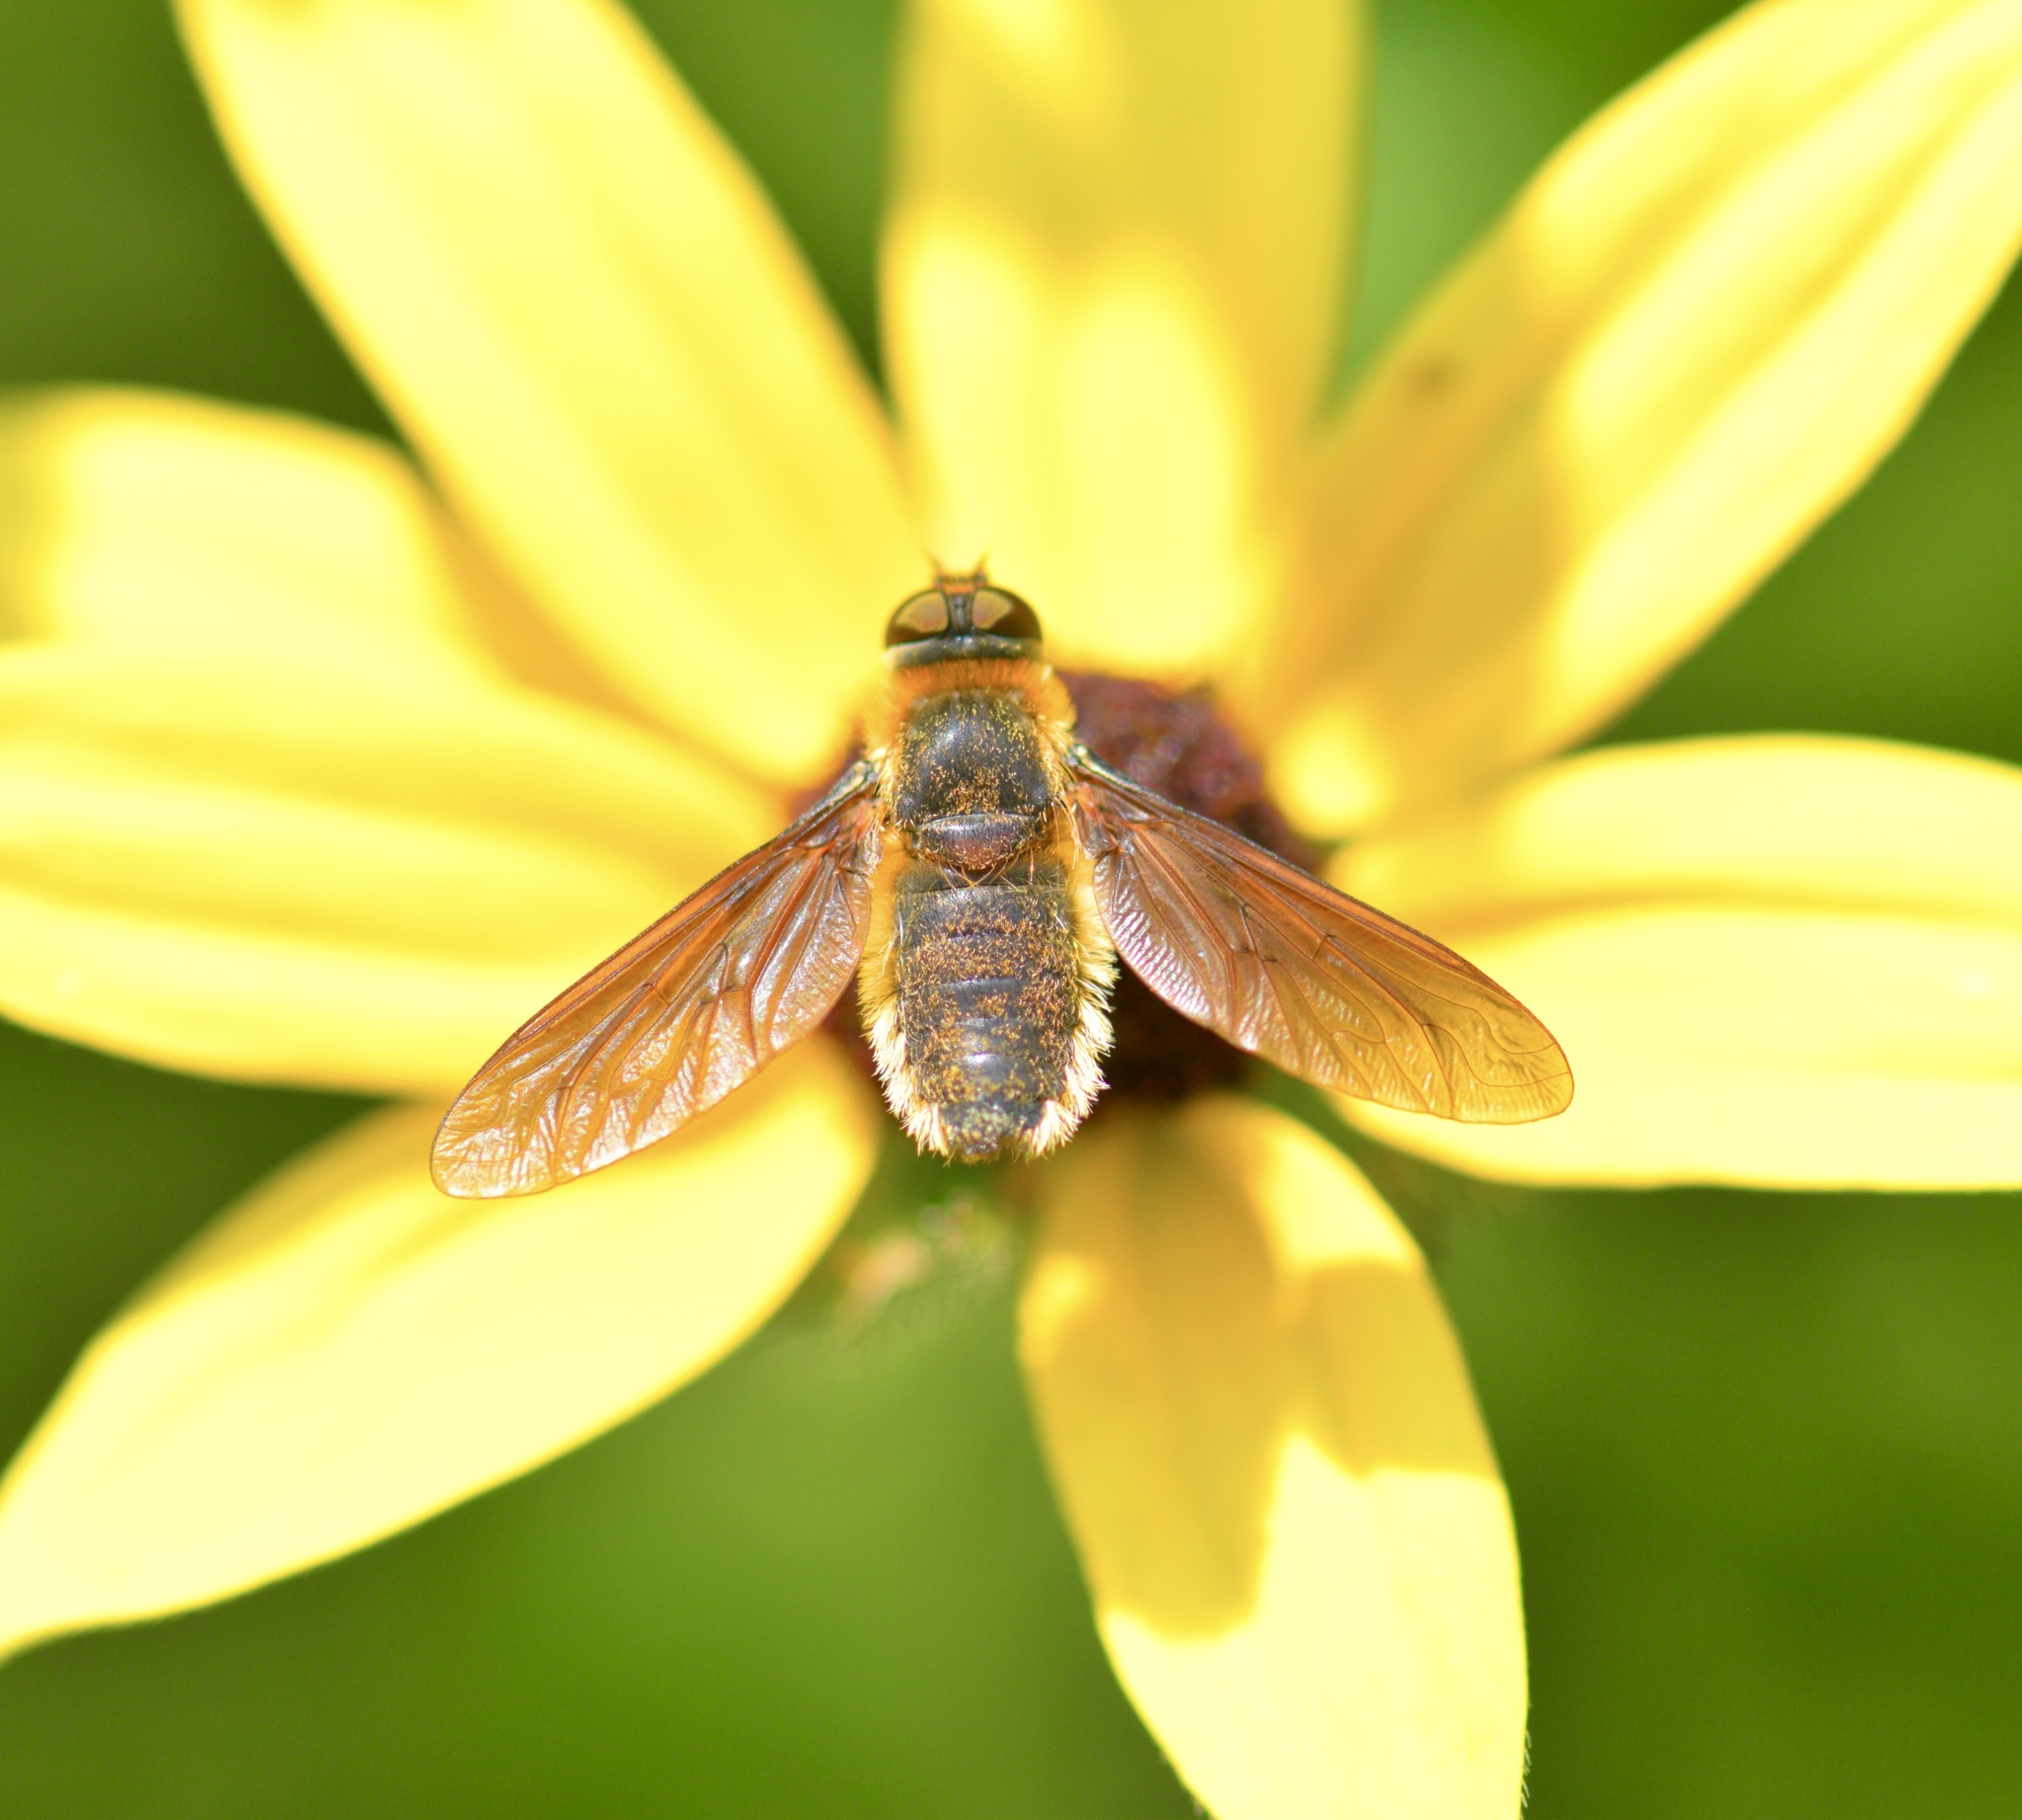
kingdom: Animalia
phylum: Arthropoda
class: Insecta
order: Diptera
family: Bombyliidae
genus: Poecilanthrax
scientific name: Poecilanthrax tegminipennis
